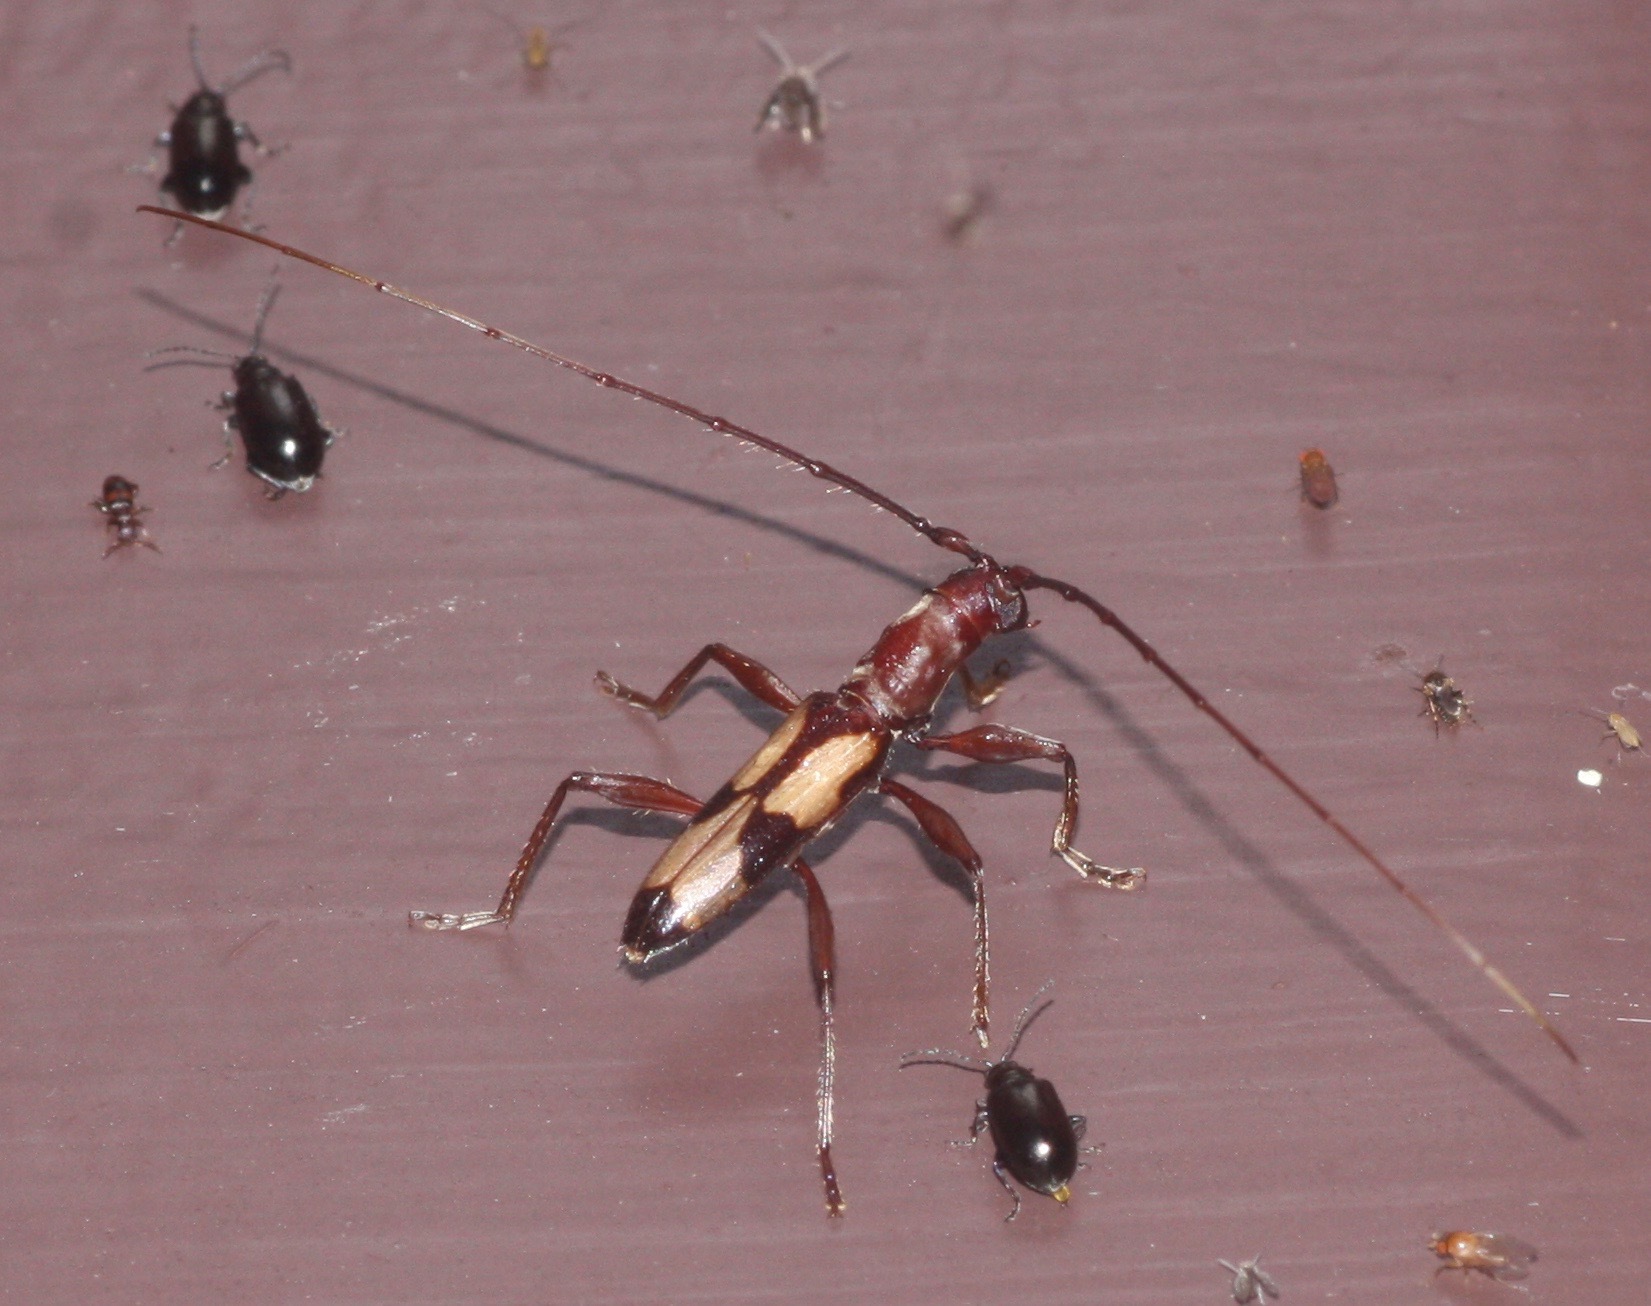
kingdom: Animalia
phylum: Arthropoda
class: Insecta
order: Coleoptera
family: Cerambycidae
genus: Pygmodeon
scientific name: Pygmodeon mutabile
